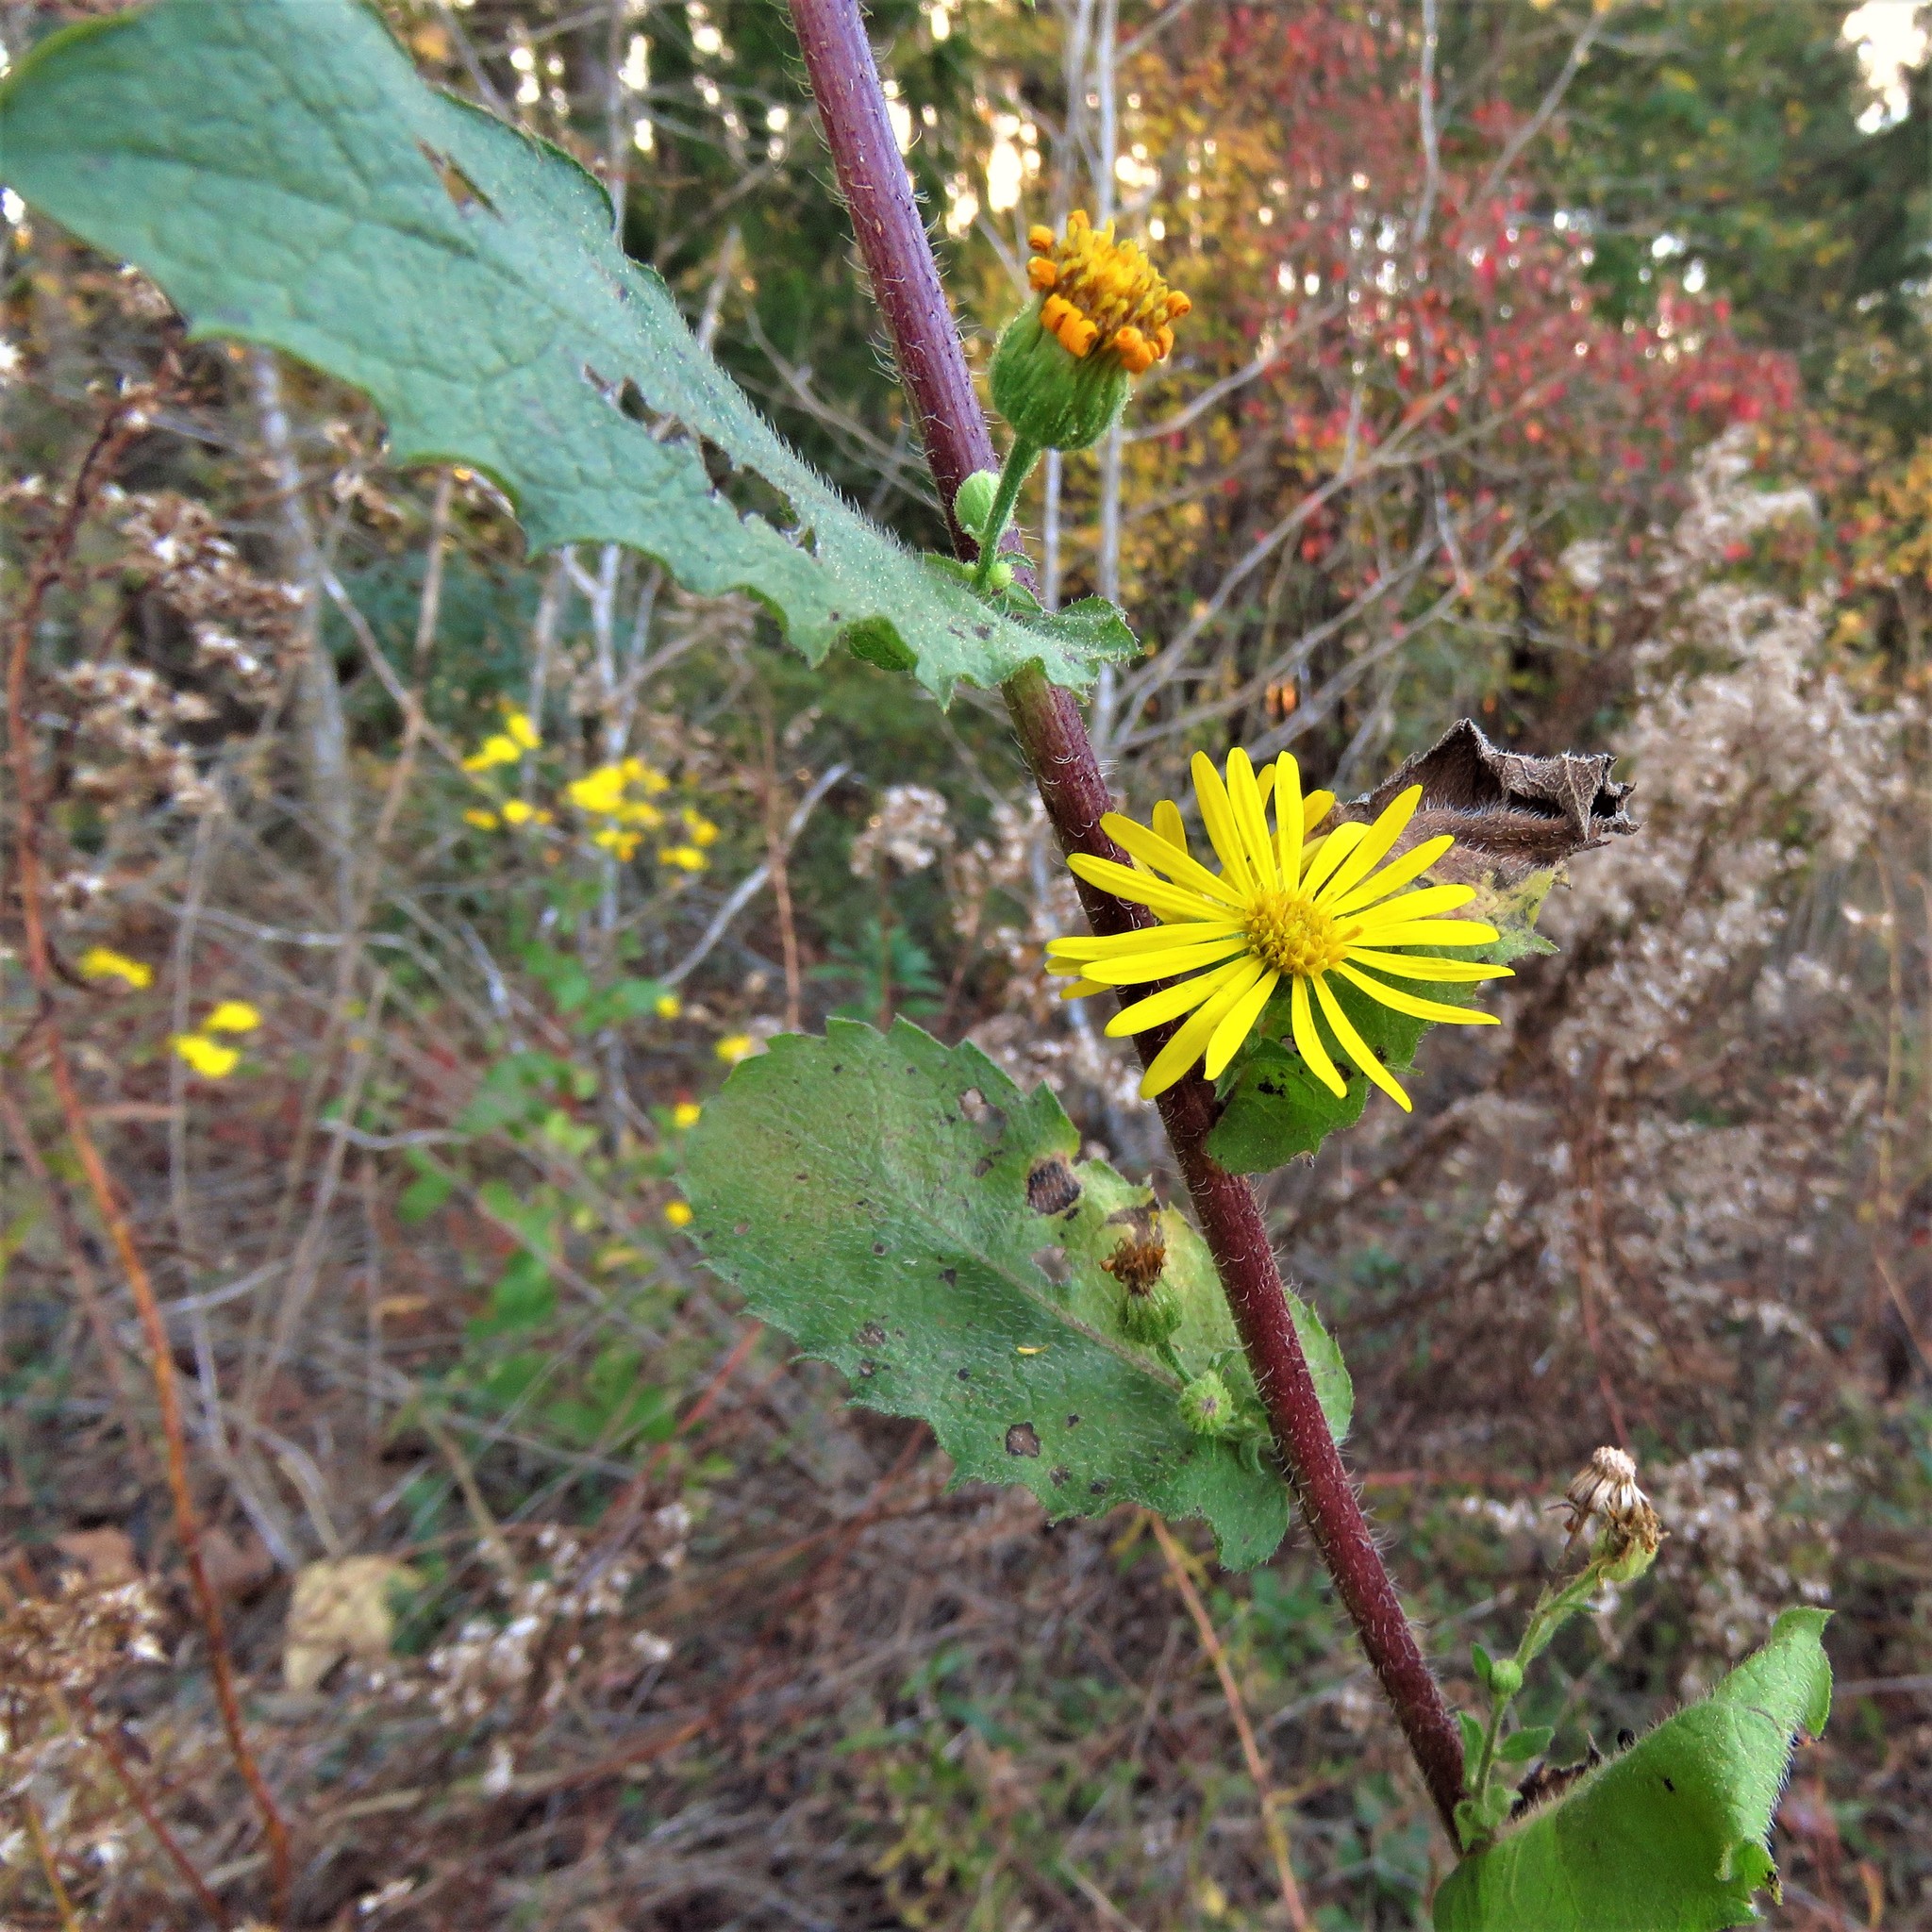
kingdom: Plantae
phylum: Tracheophyta
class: Magnoliopsida
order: Asterales
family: Asteraceae
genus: Heterotheca
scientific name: Heterotheca subaxillaris
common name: Camphorweed
